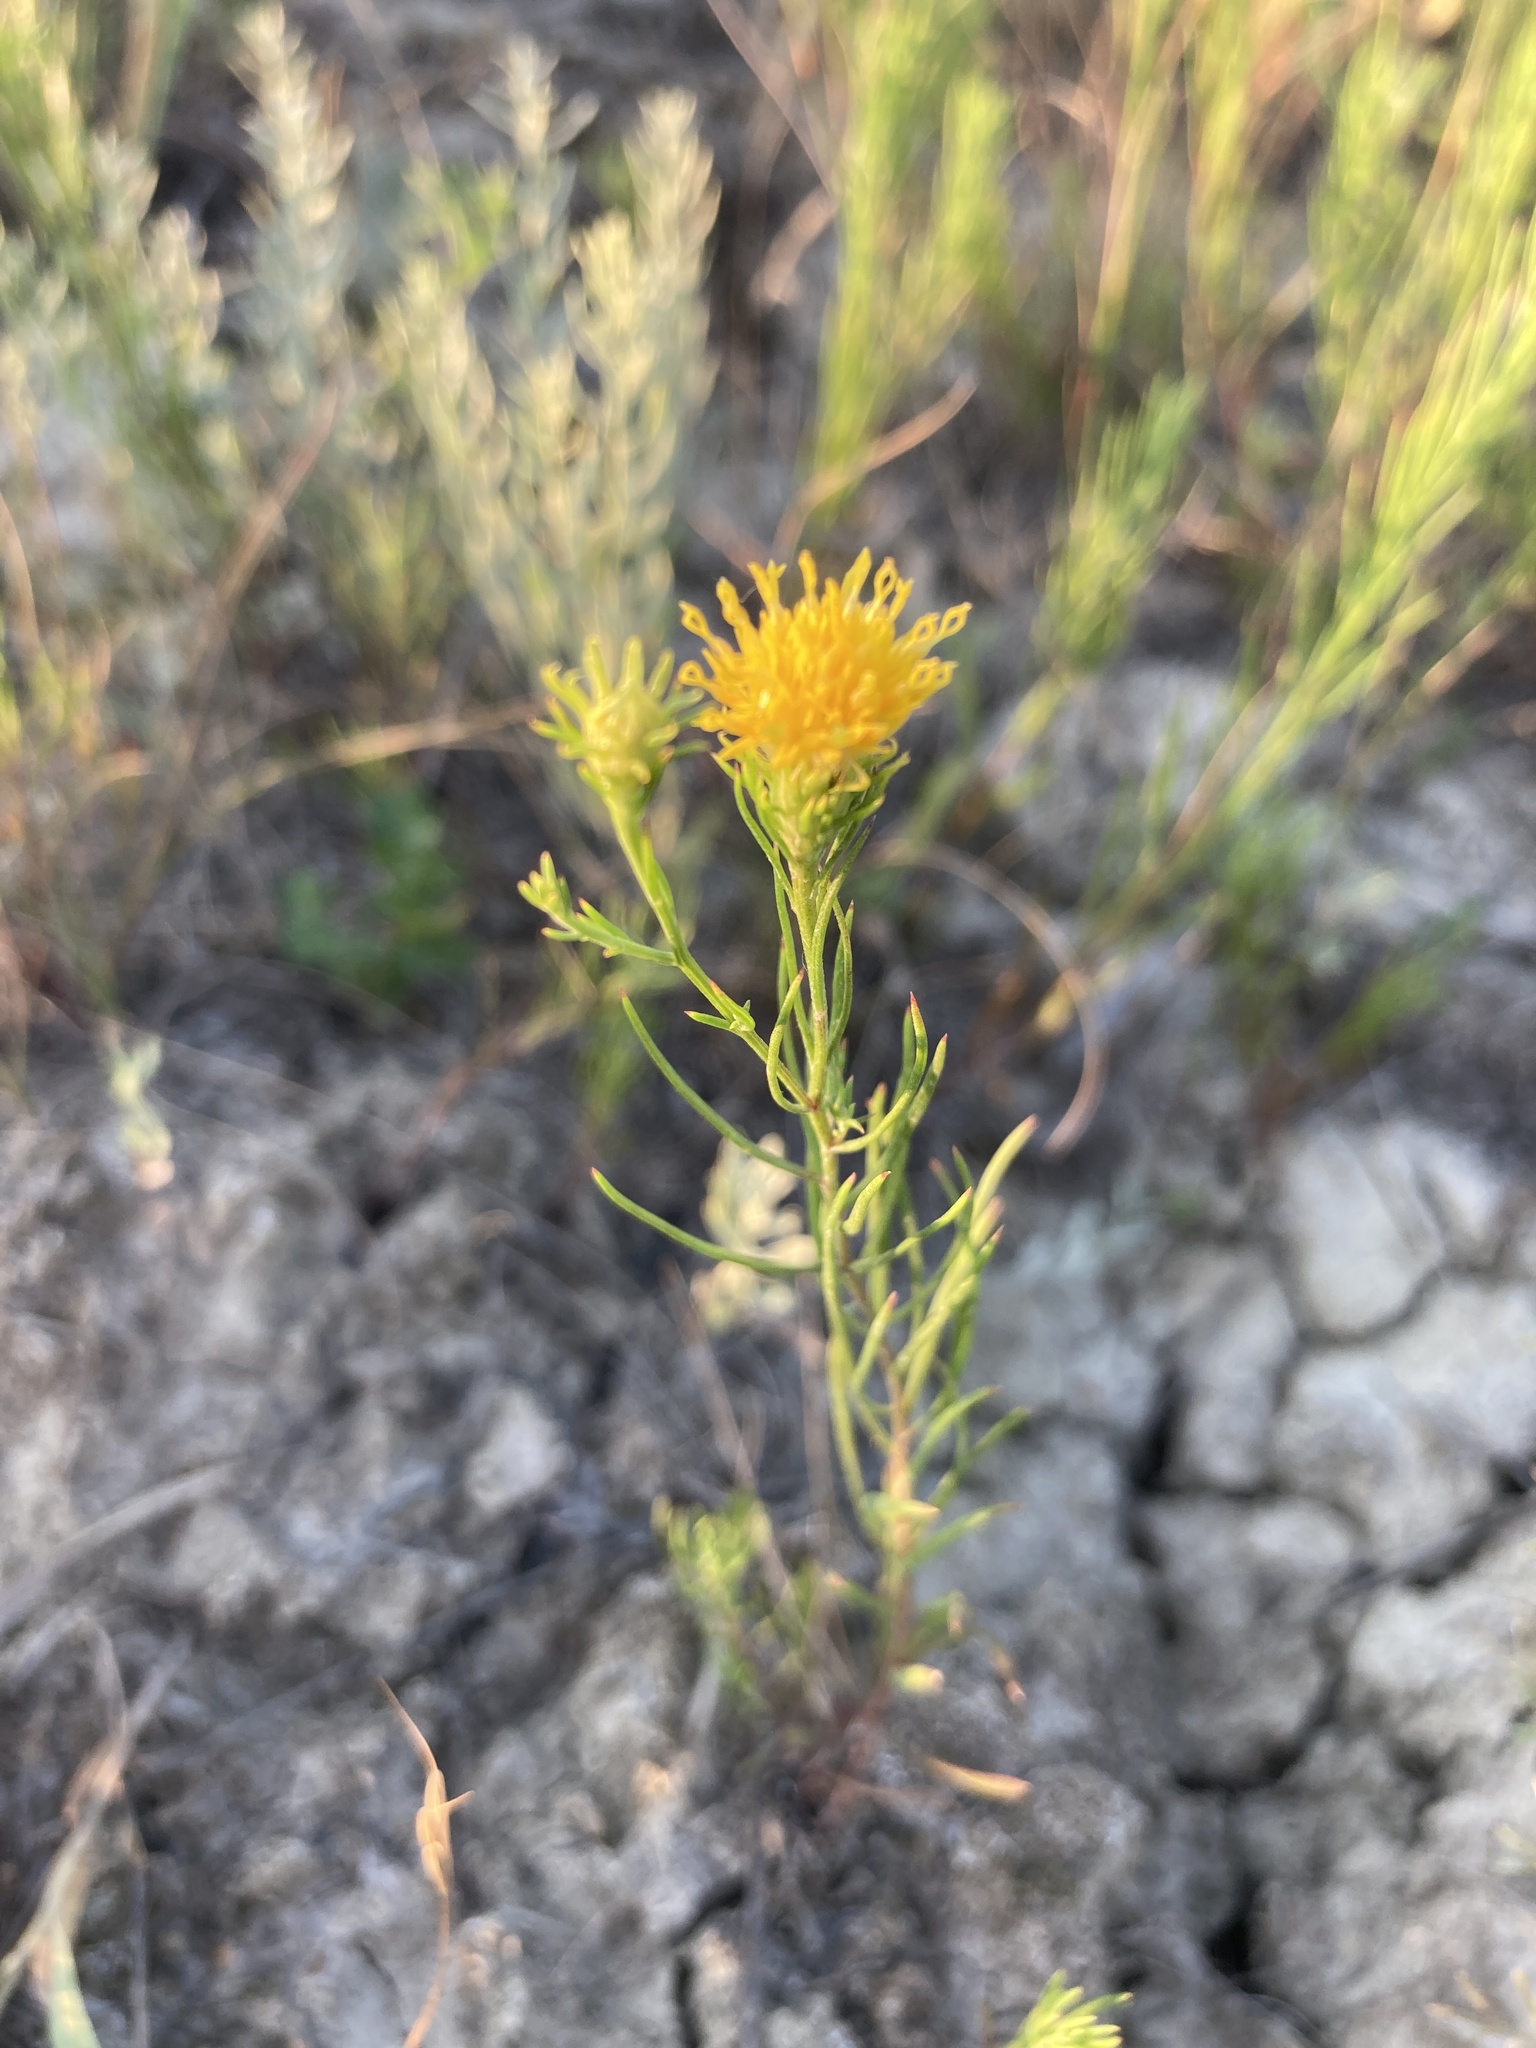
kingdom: Plantae
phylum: Tracheophyta
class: Magnoliopsida
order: Asterales
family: Asteraceae
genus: Galatella
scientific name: Galatella linosyris
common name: Goldilocks aster
